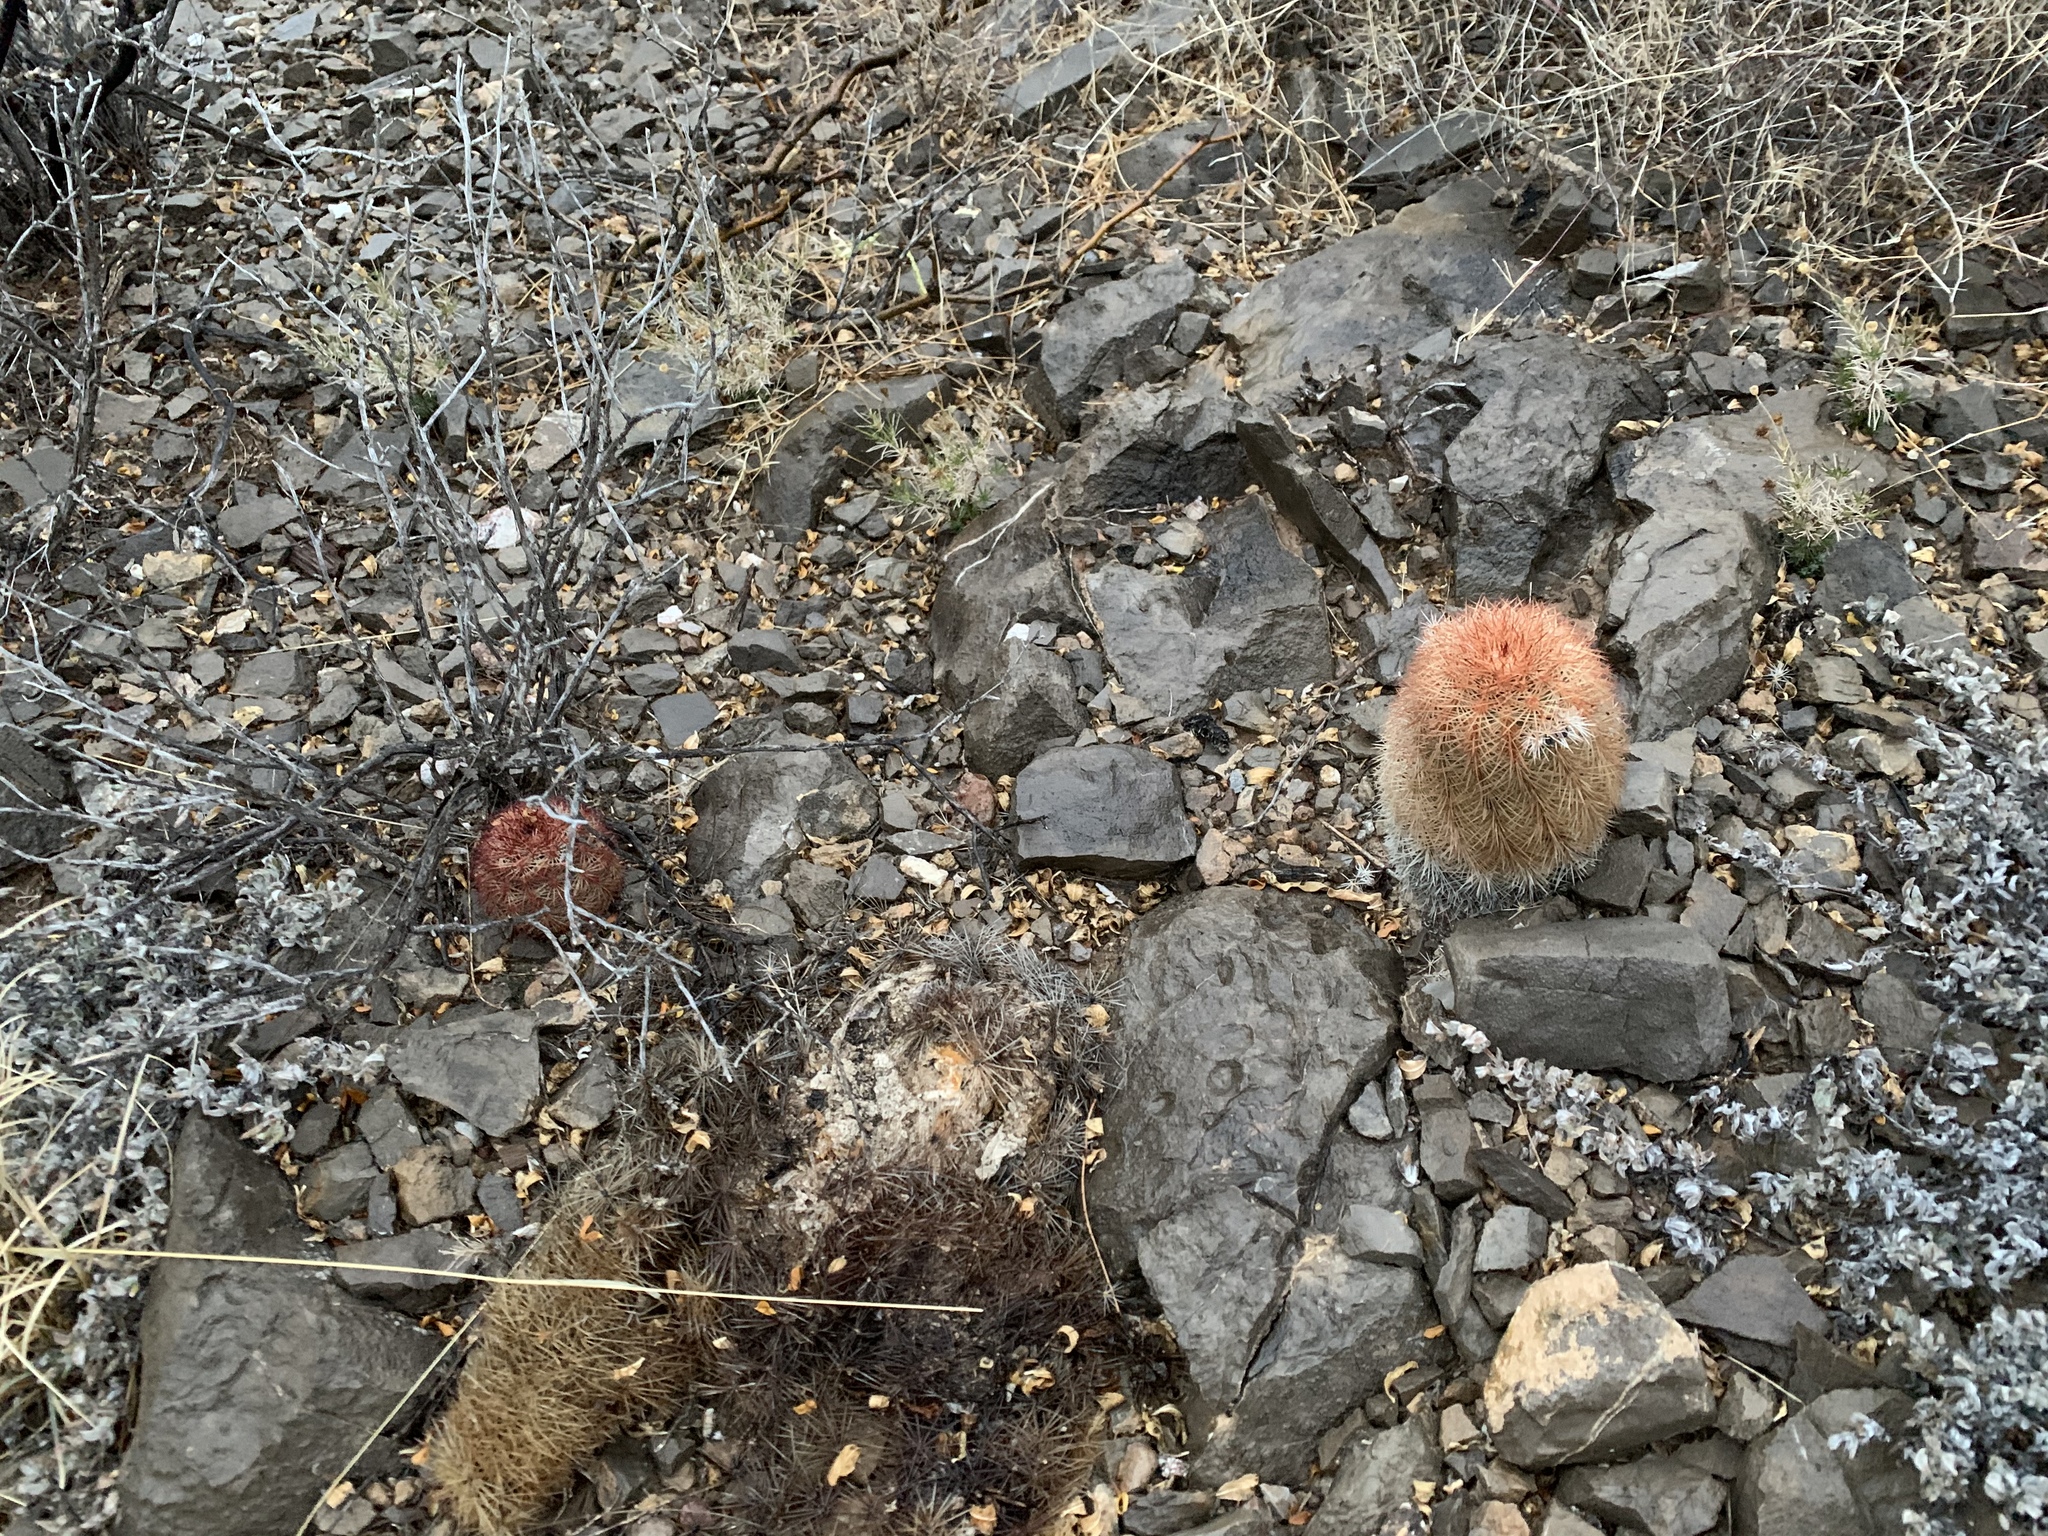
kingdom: Plantae
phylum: Tracheophyta
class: Magnoliopsida
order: Caryophyllales
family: Cactaceae
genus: Echinocereus
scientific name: Echinocereus dasyacanthus
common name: Spiny hedgehog cactus
